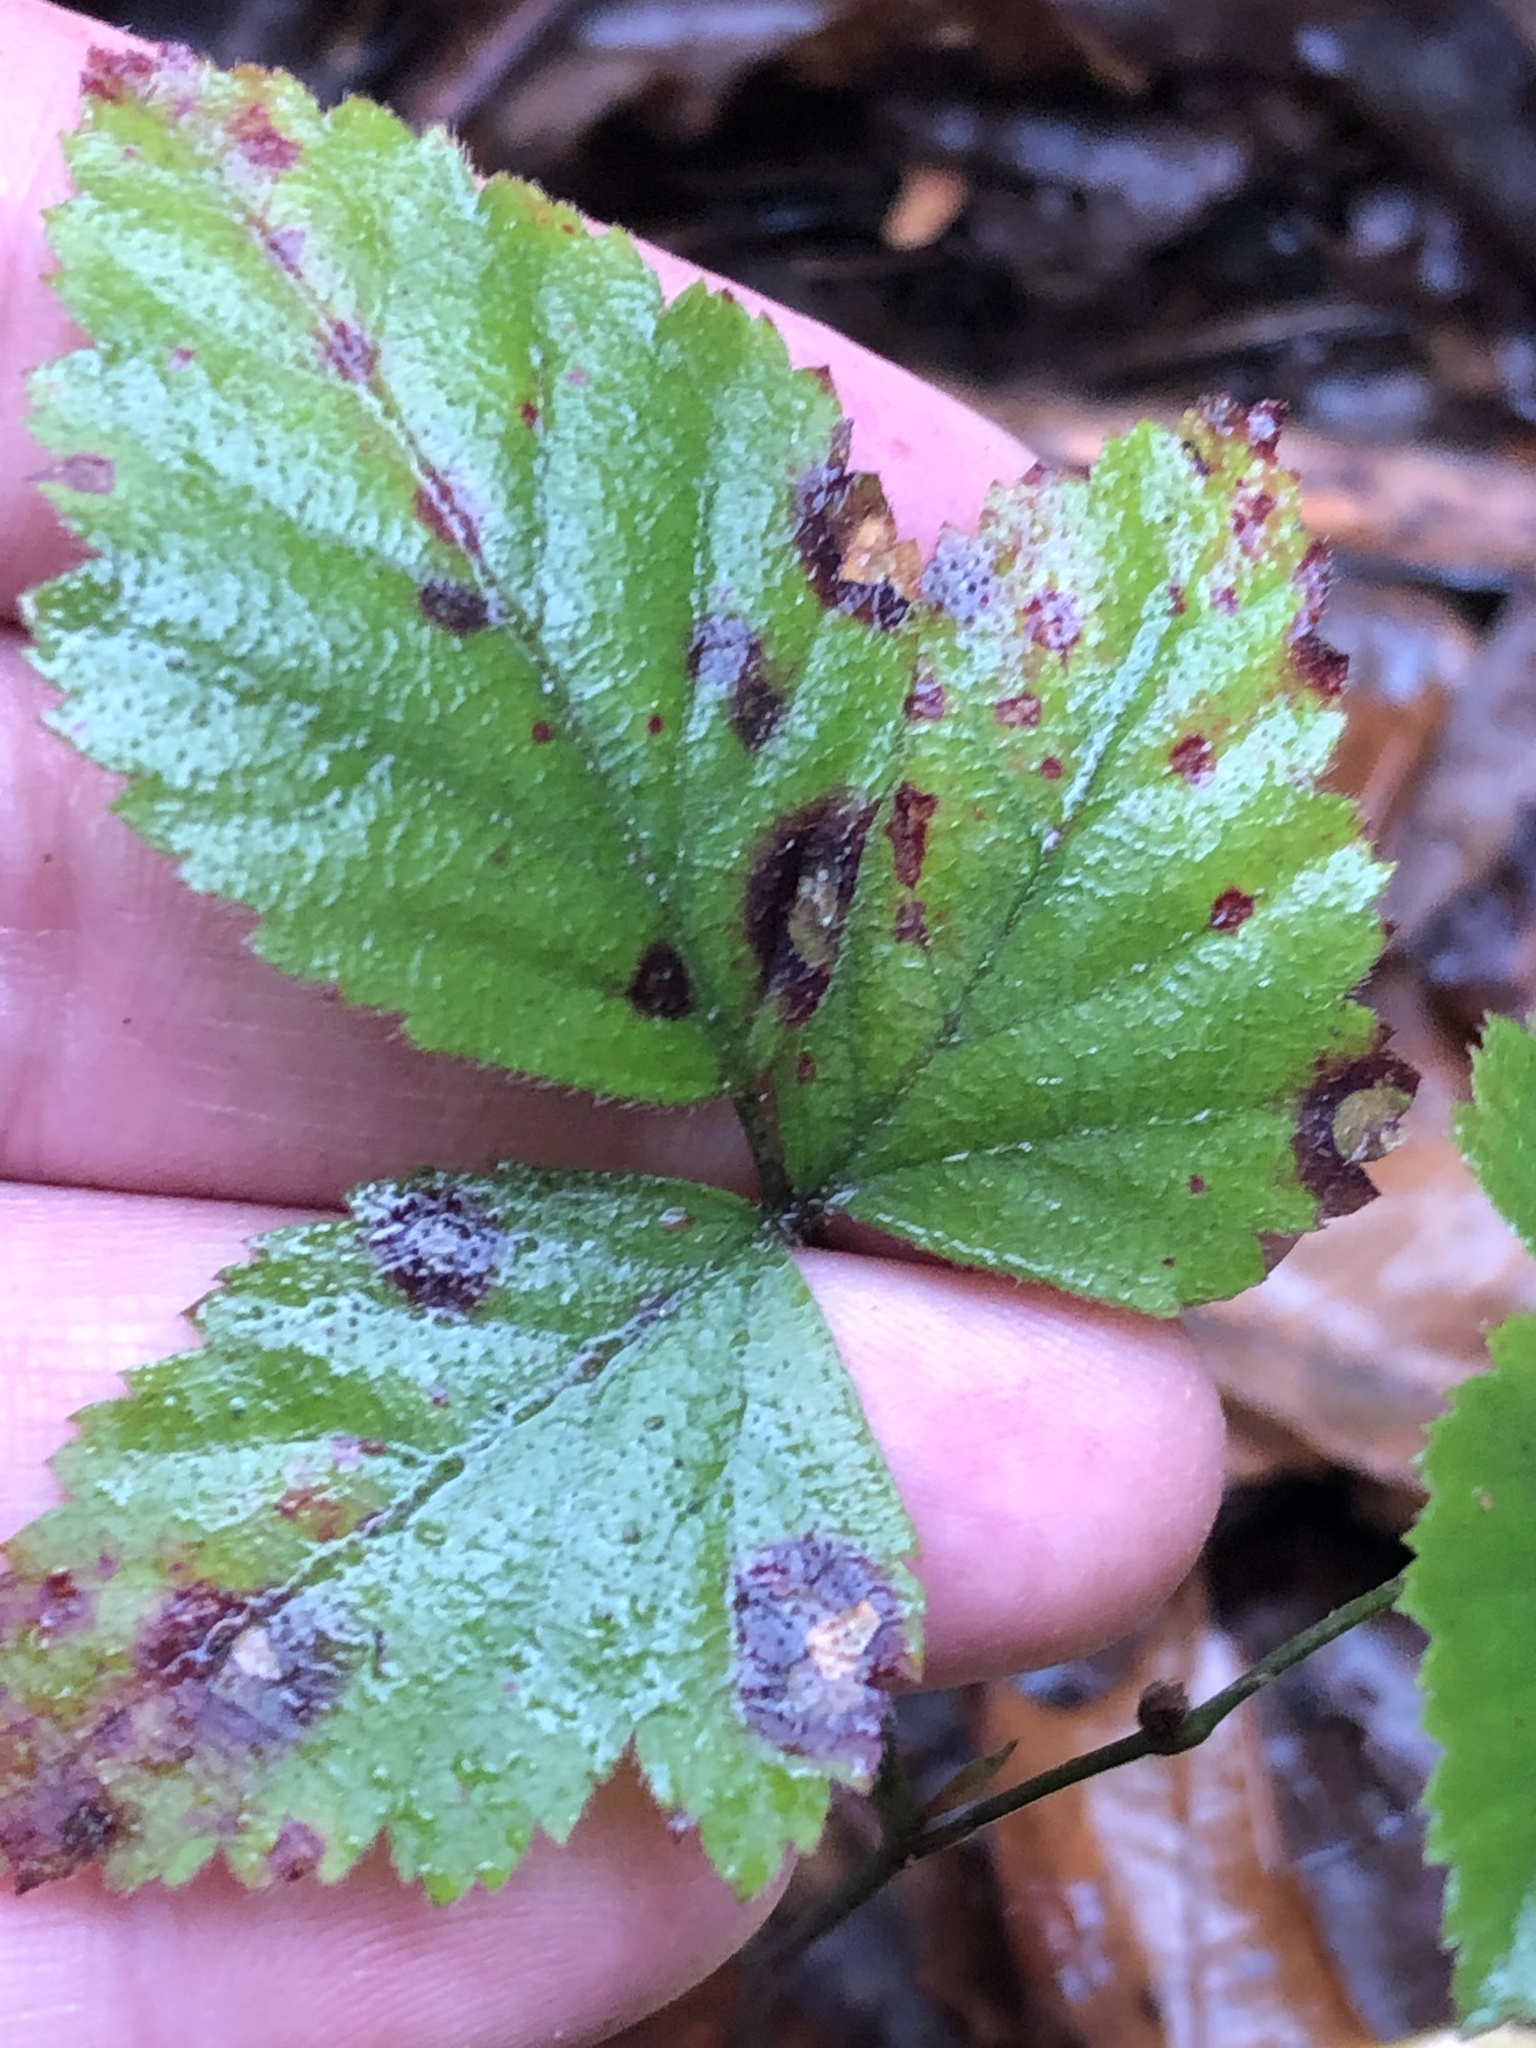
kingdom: Fungi
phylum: Basidiomycota
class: Pucciniomycetes
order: Pucciniales
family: Phragmidiaceae
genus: Phragmidium
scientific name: Phragmidium violaceum
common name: Violet bramble rust
